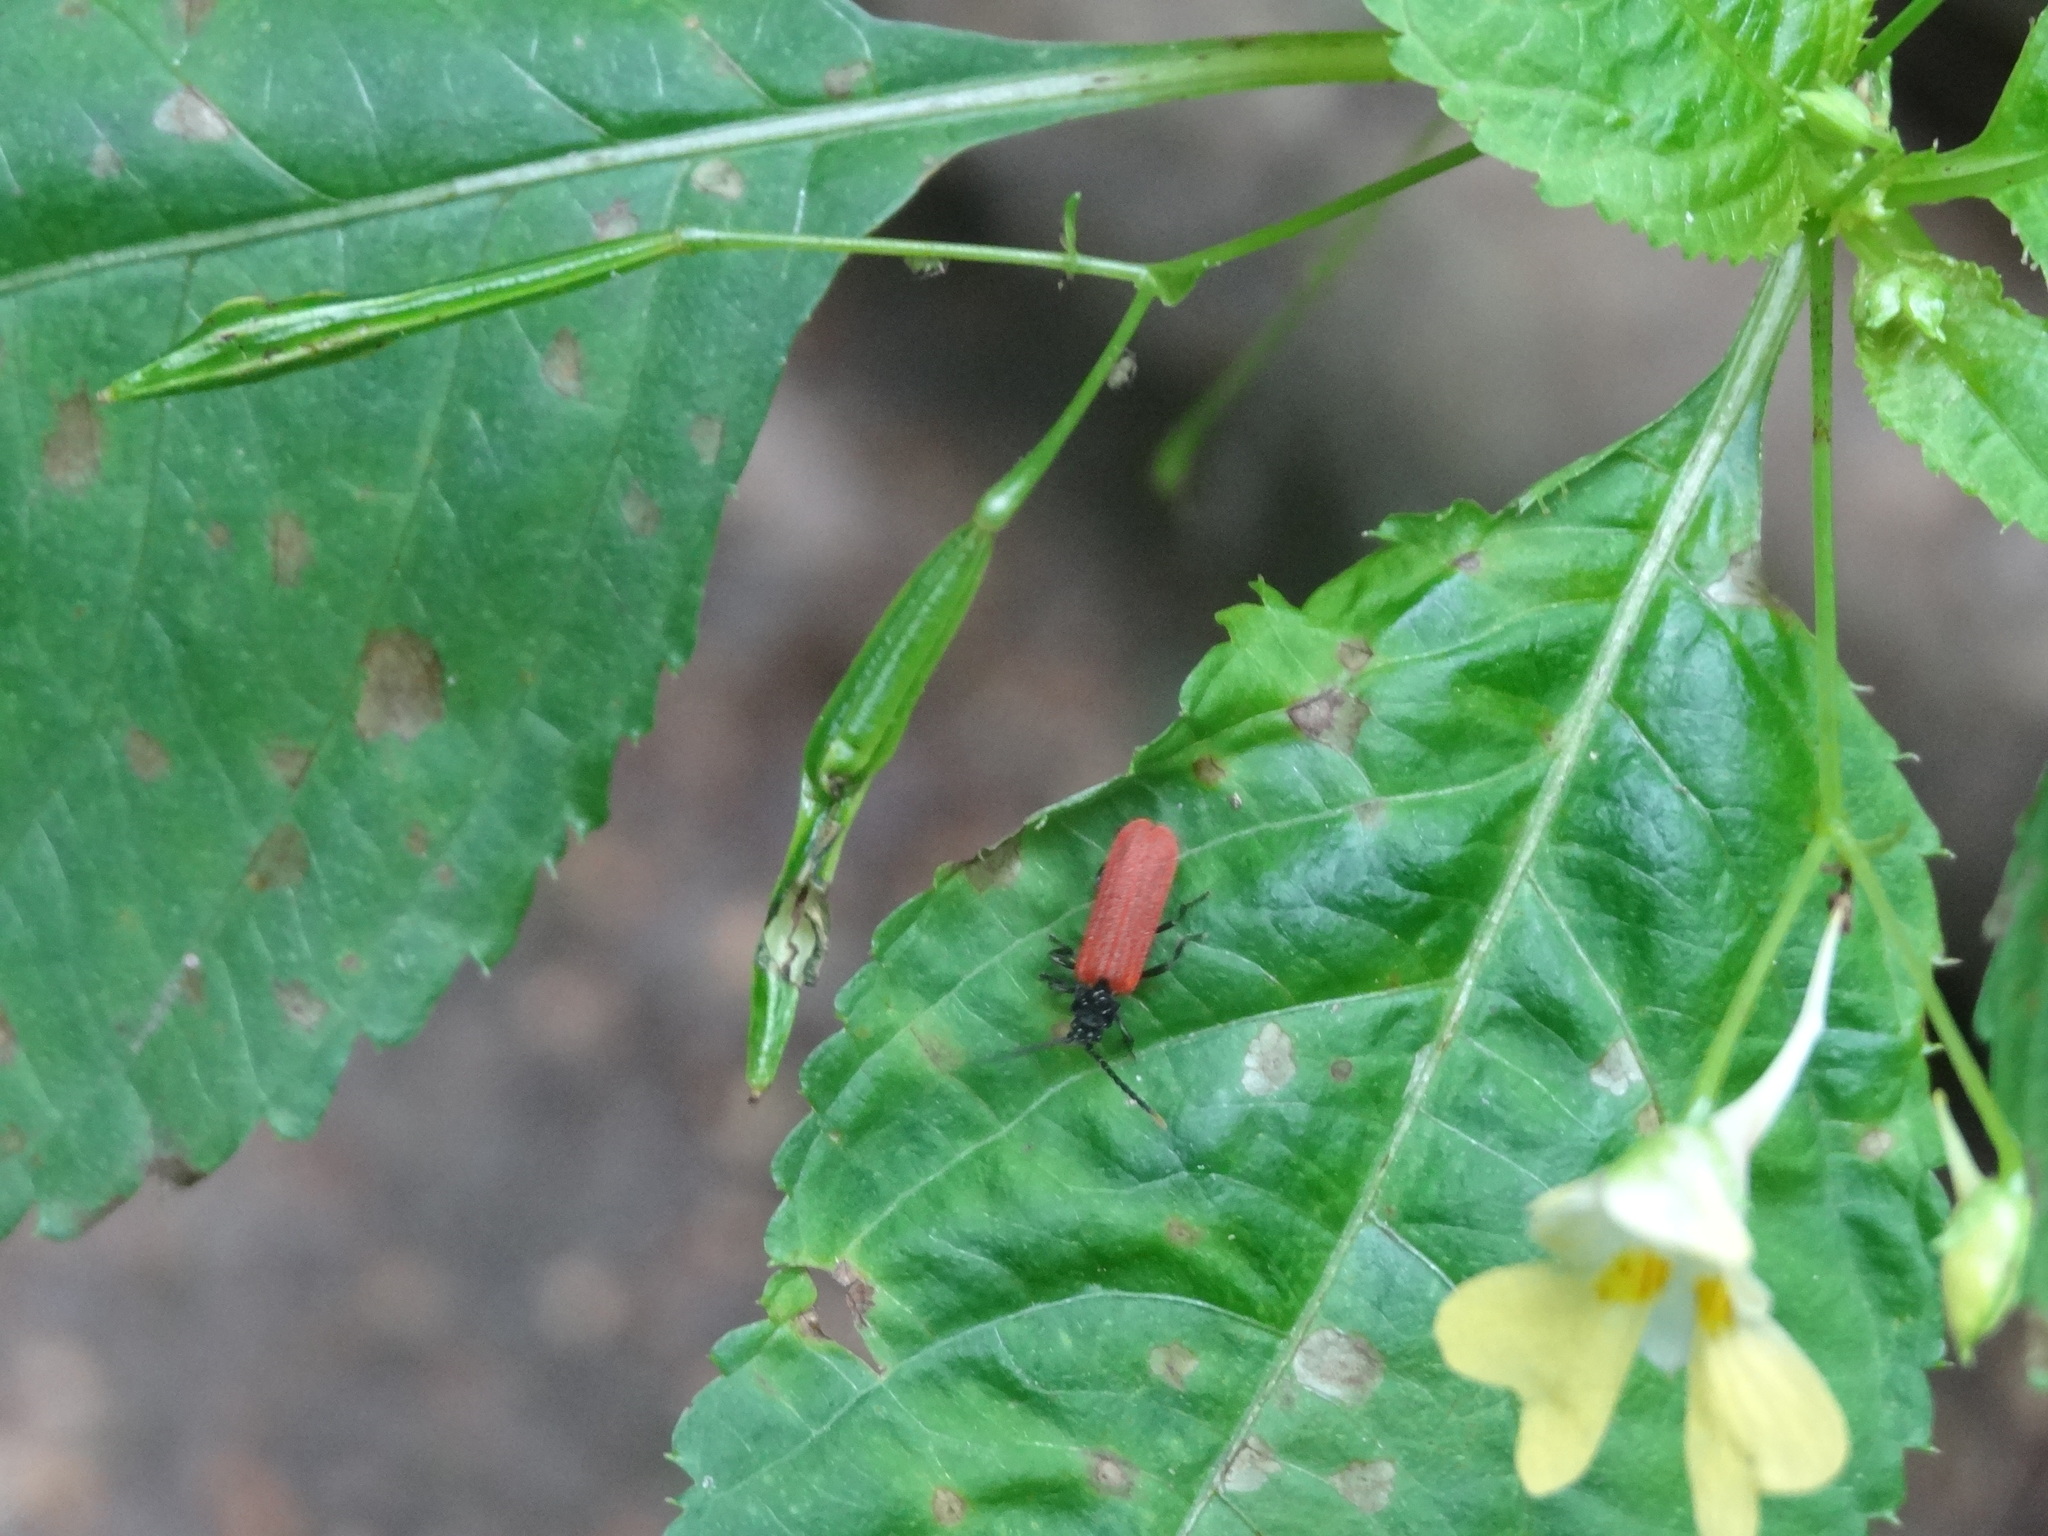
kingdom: Animalia
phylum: Arthropoda
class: Insecta
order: Coleoptera
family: Lycidae
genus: Platycis
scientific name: Platycis minutus
